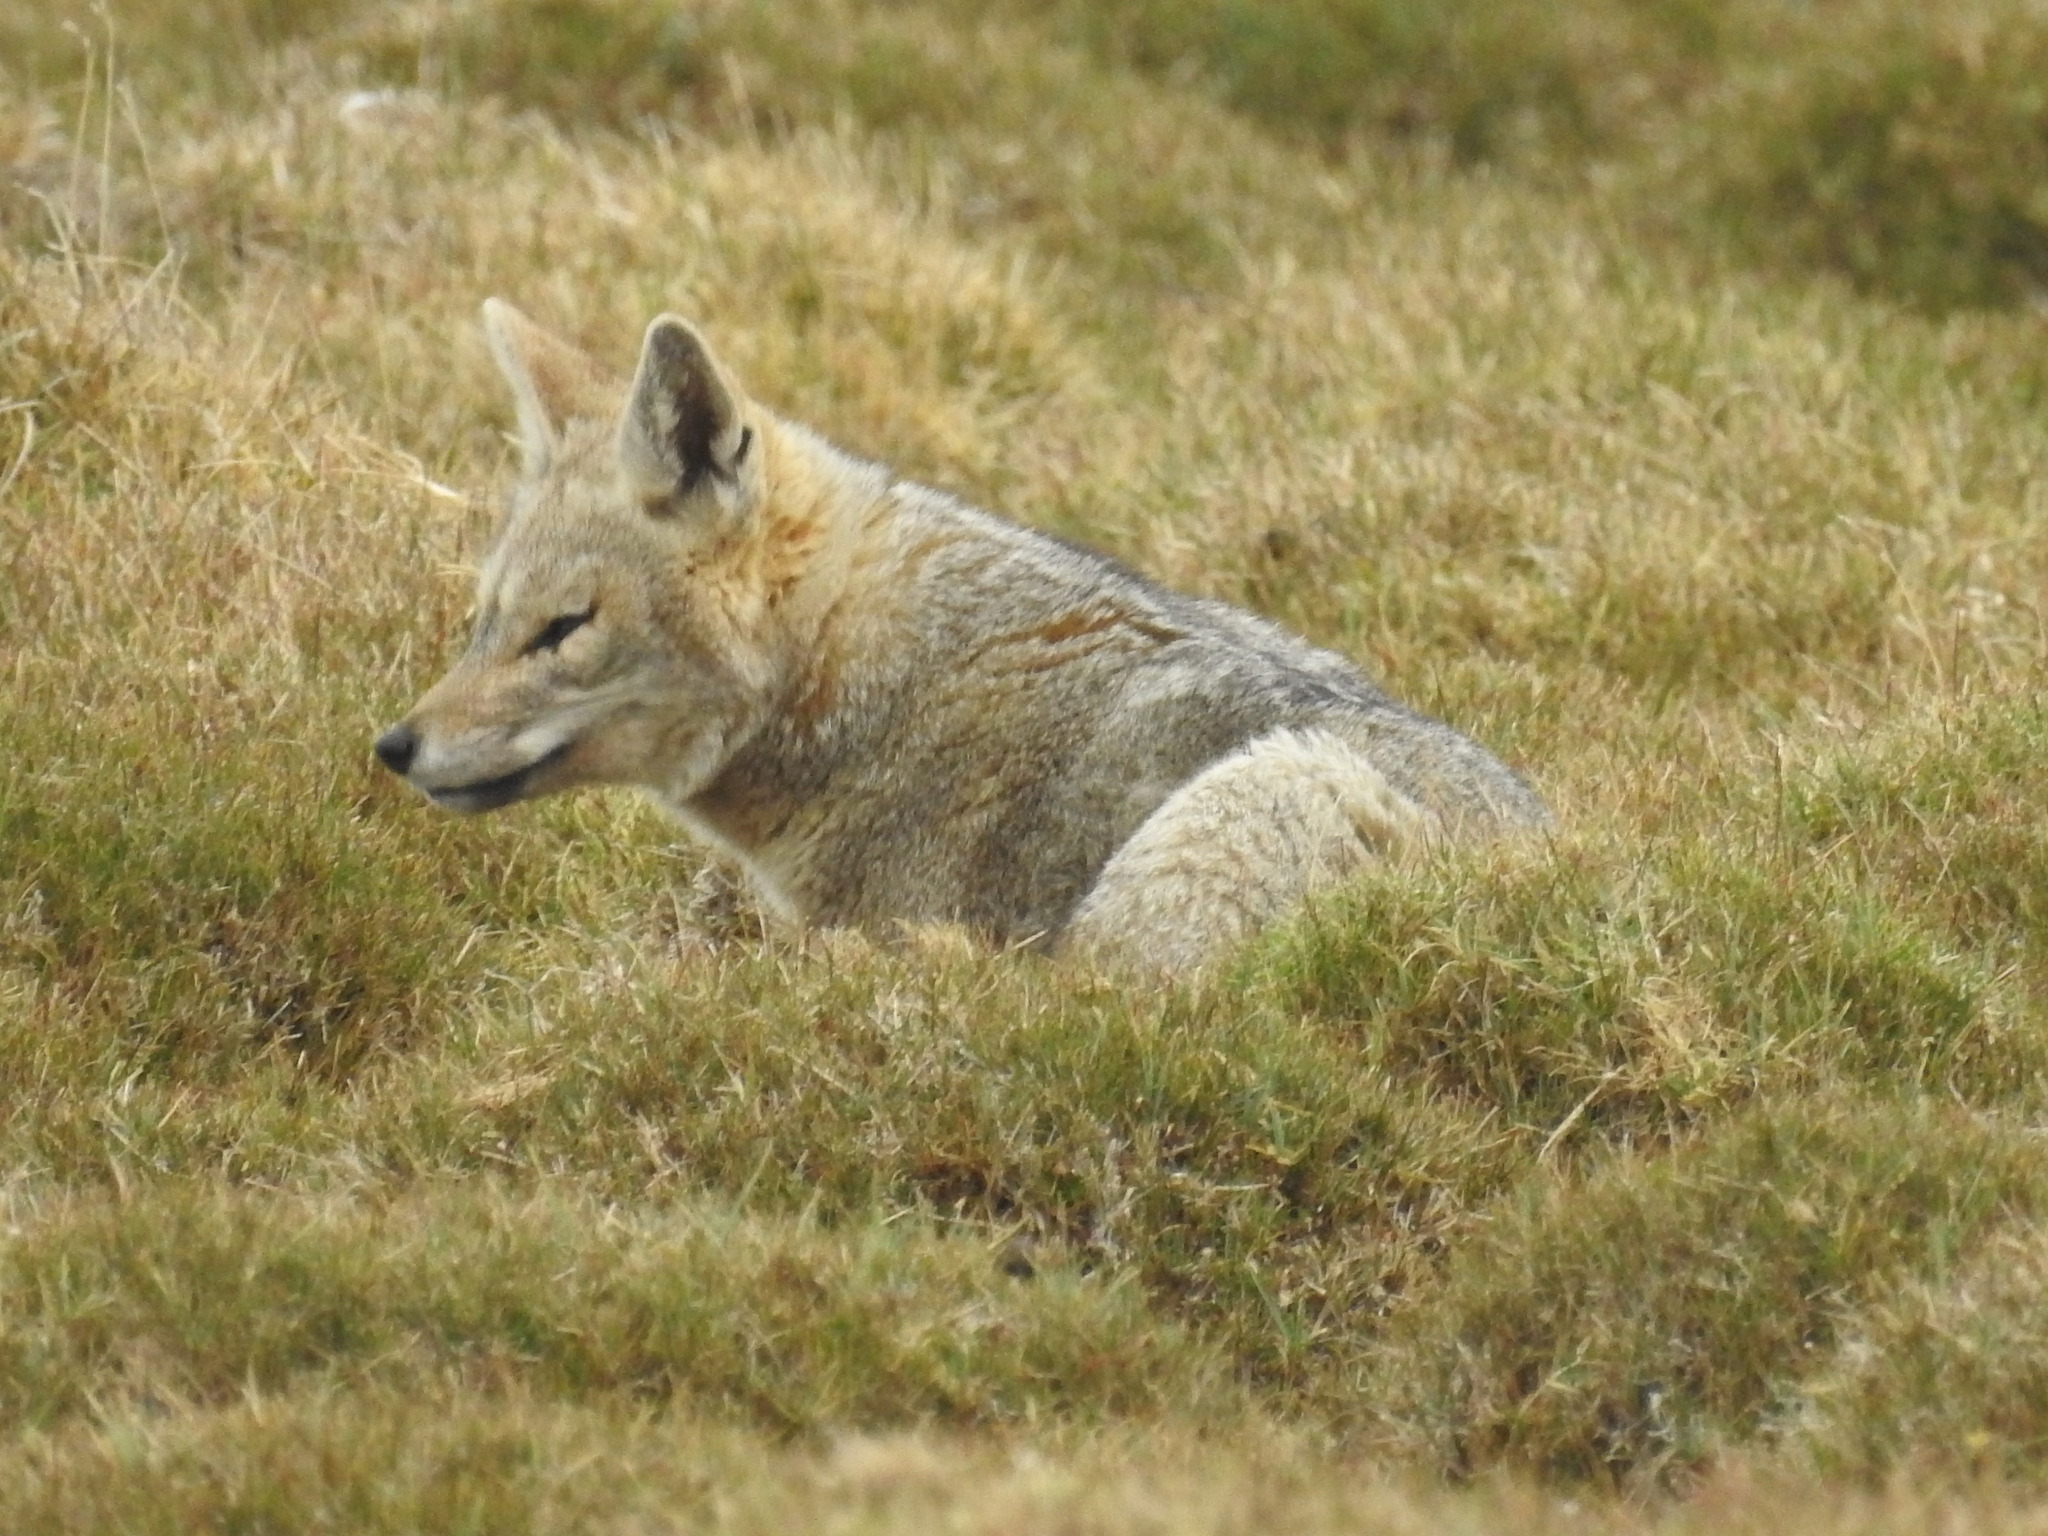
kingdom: Animalia
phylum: Chordata
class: Mammalia
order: Carnivora
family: Canidae
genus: Lycalopex
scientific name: Lycalopex gymnocercus
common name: Pampas fox
